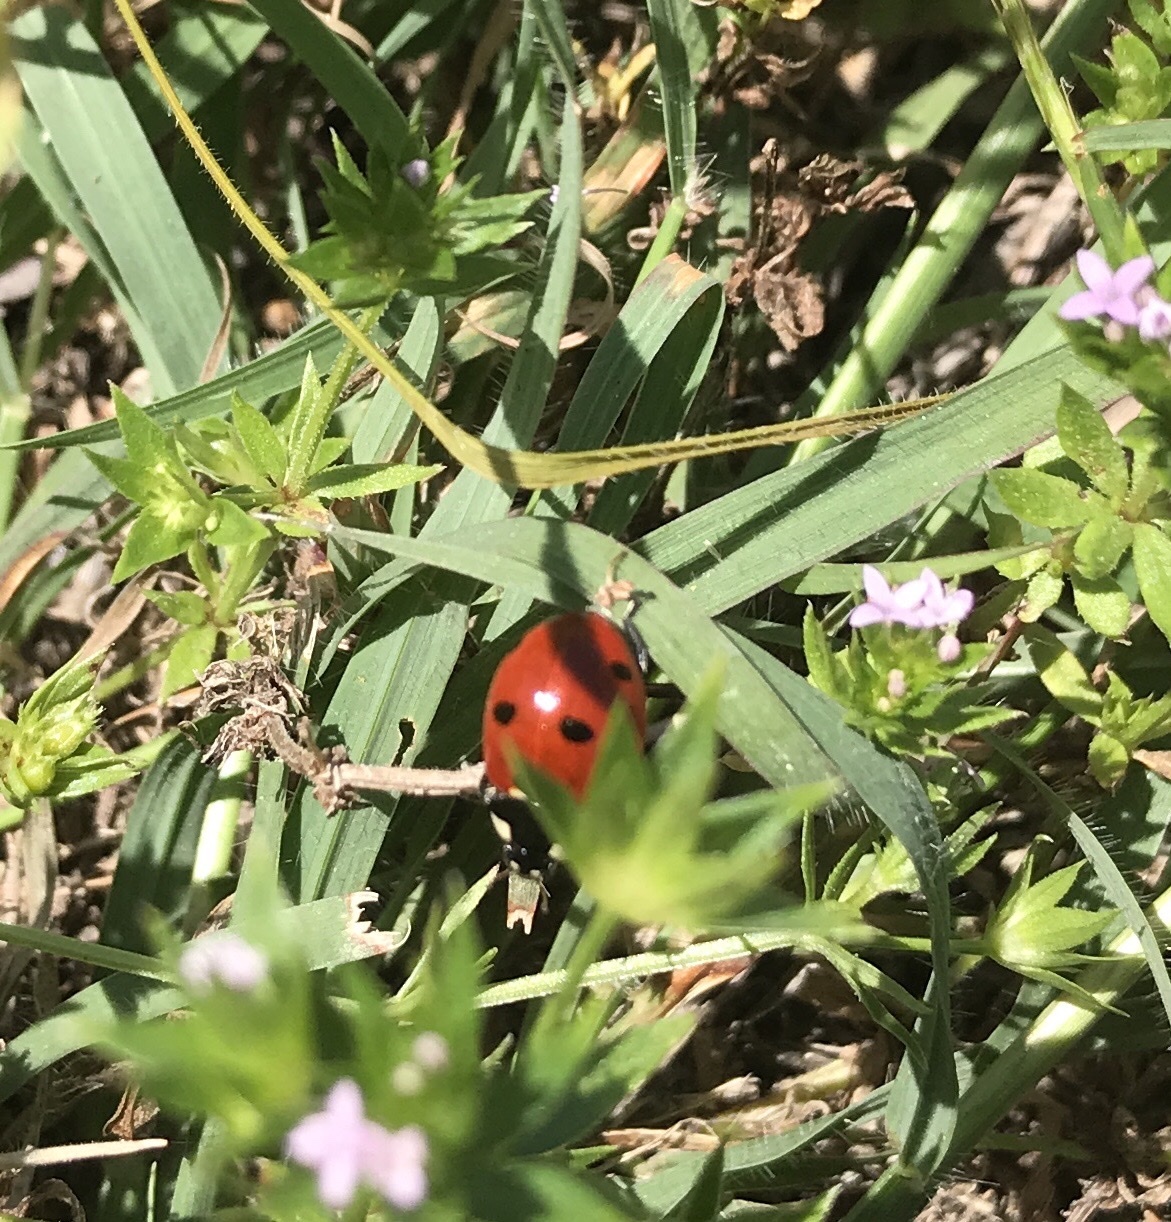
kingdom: Animalia
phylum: Arthropoda
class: Insecta
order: Coleoptera
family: Coccinellidae
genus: Coccinella
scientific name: Coccinella septempunctata
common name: Sevenspotted lady beetle
